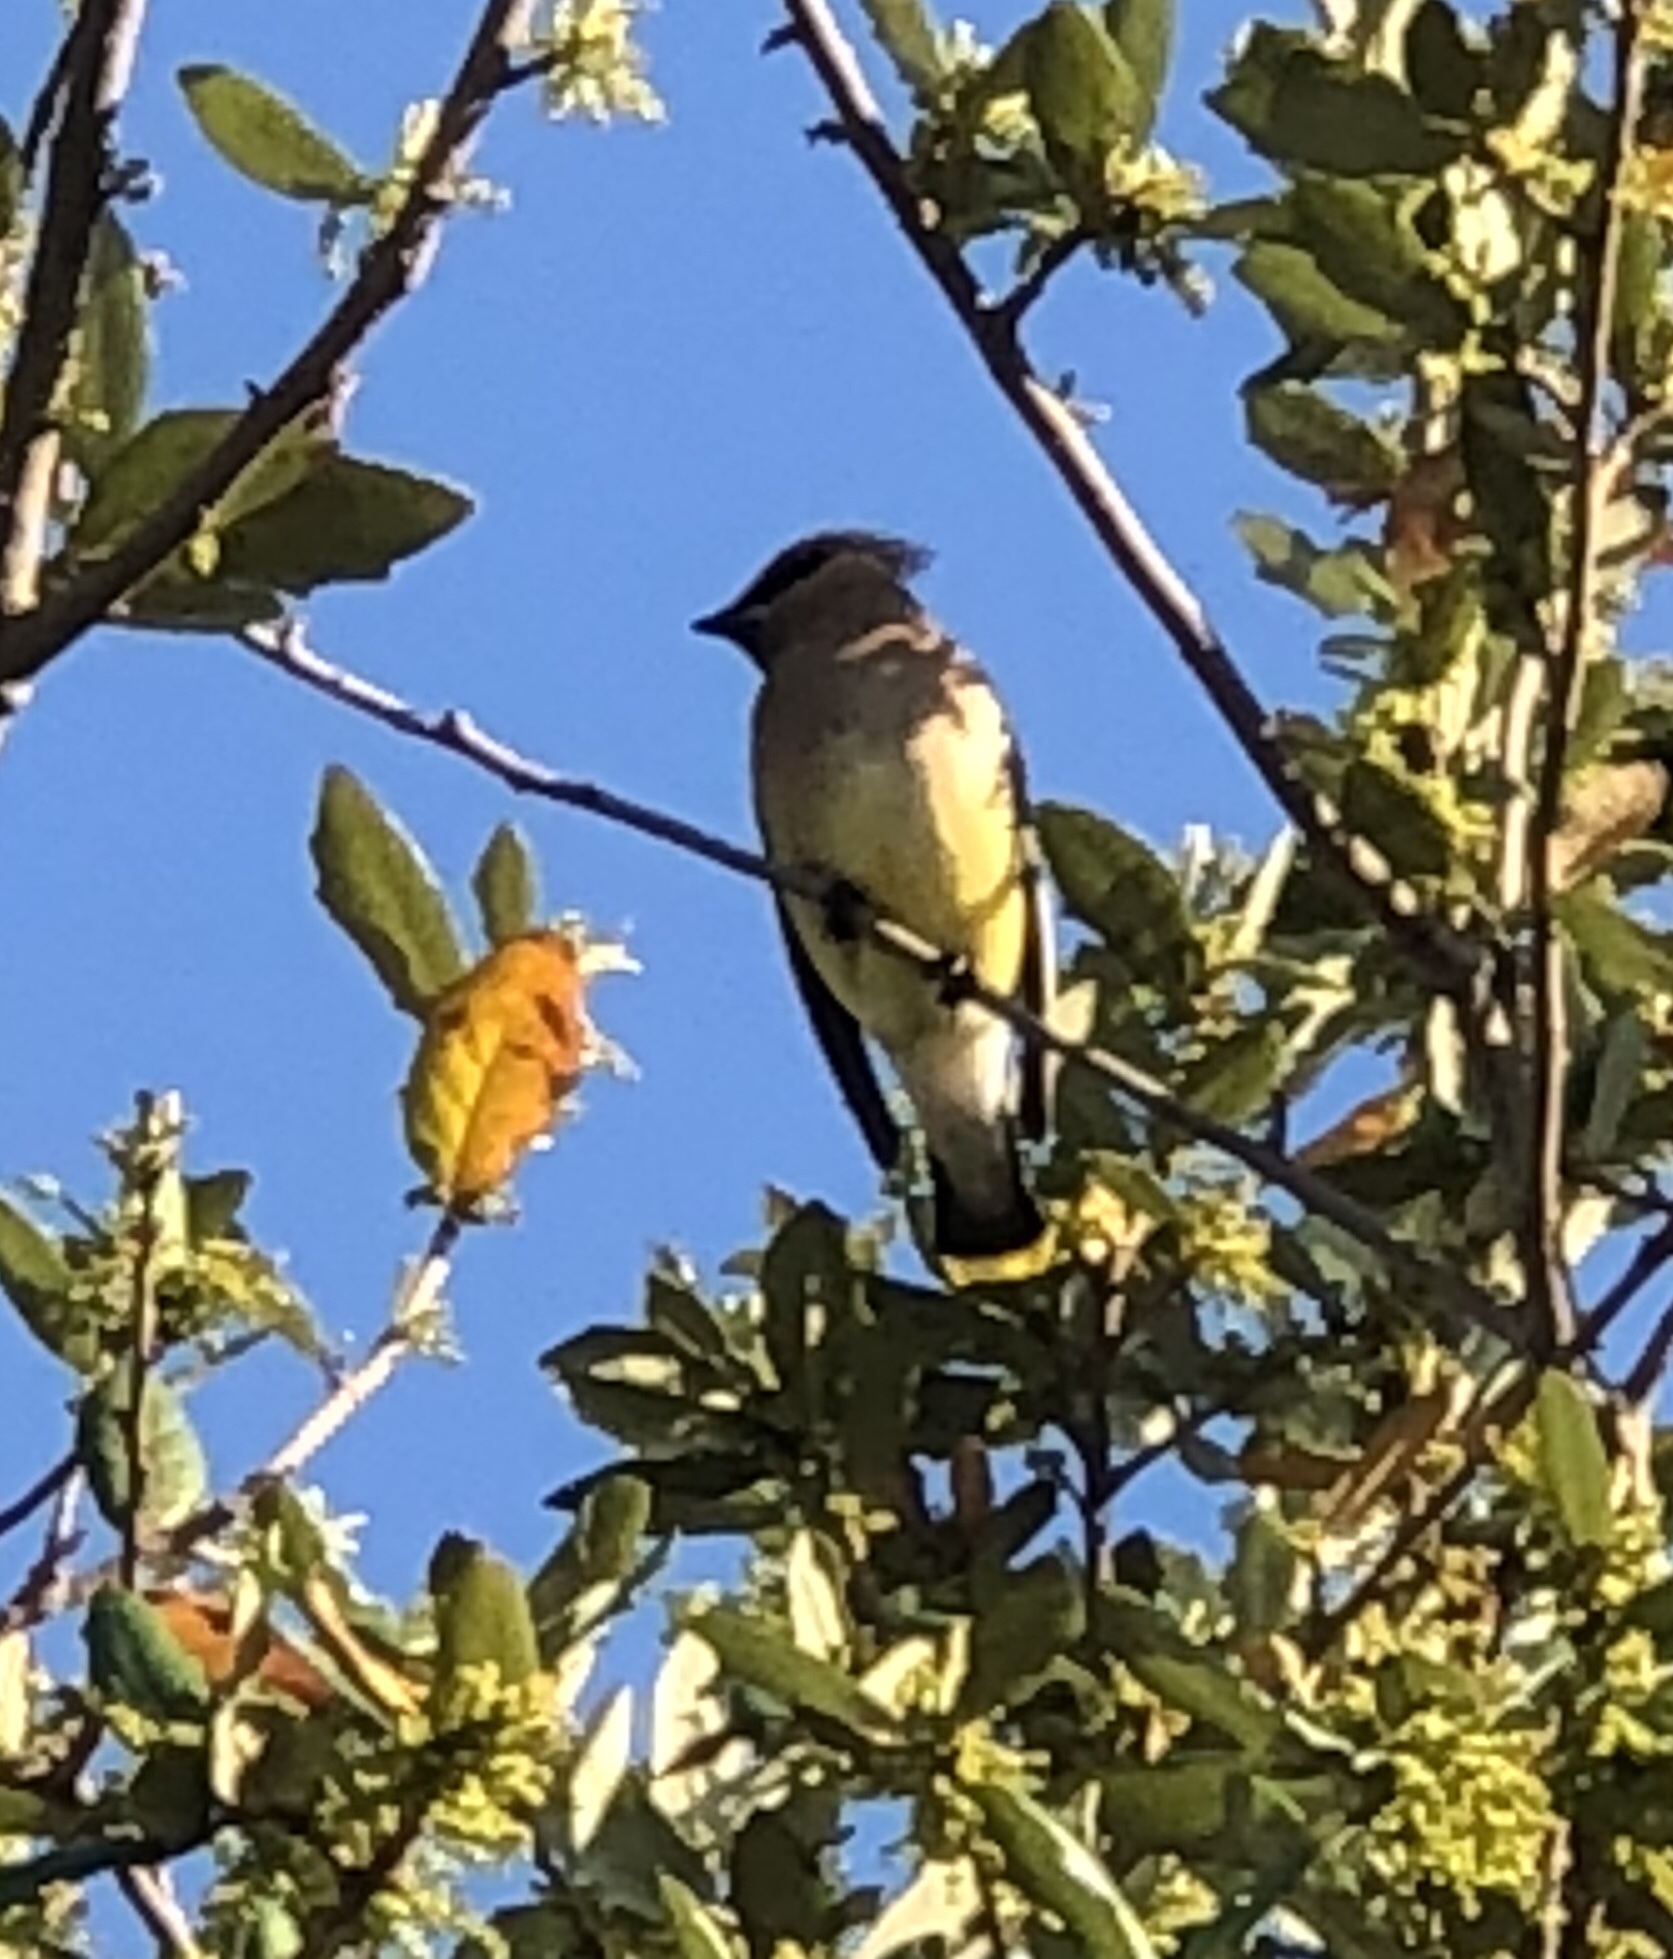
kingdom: Animalia
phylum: Chordata
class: Aves
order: Passeriformes
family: Bombycillidae
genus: Bombycilla
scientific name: Bombycilla cedrorum
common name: Cedar waxwing
